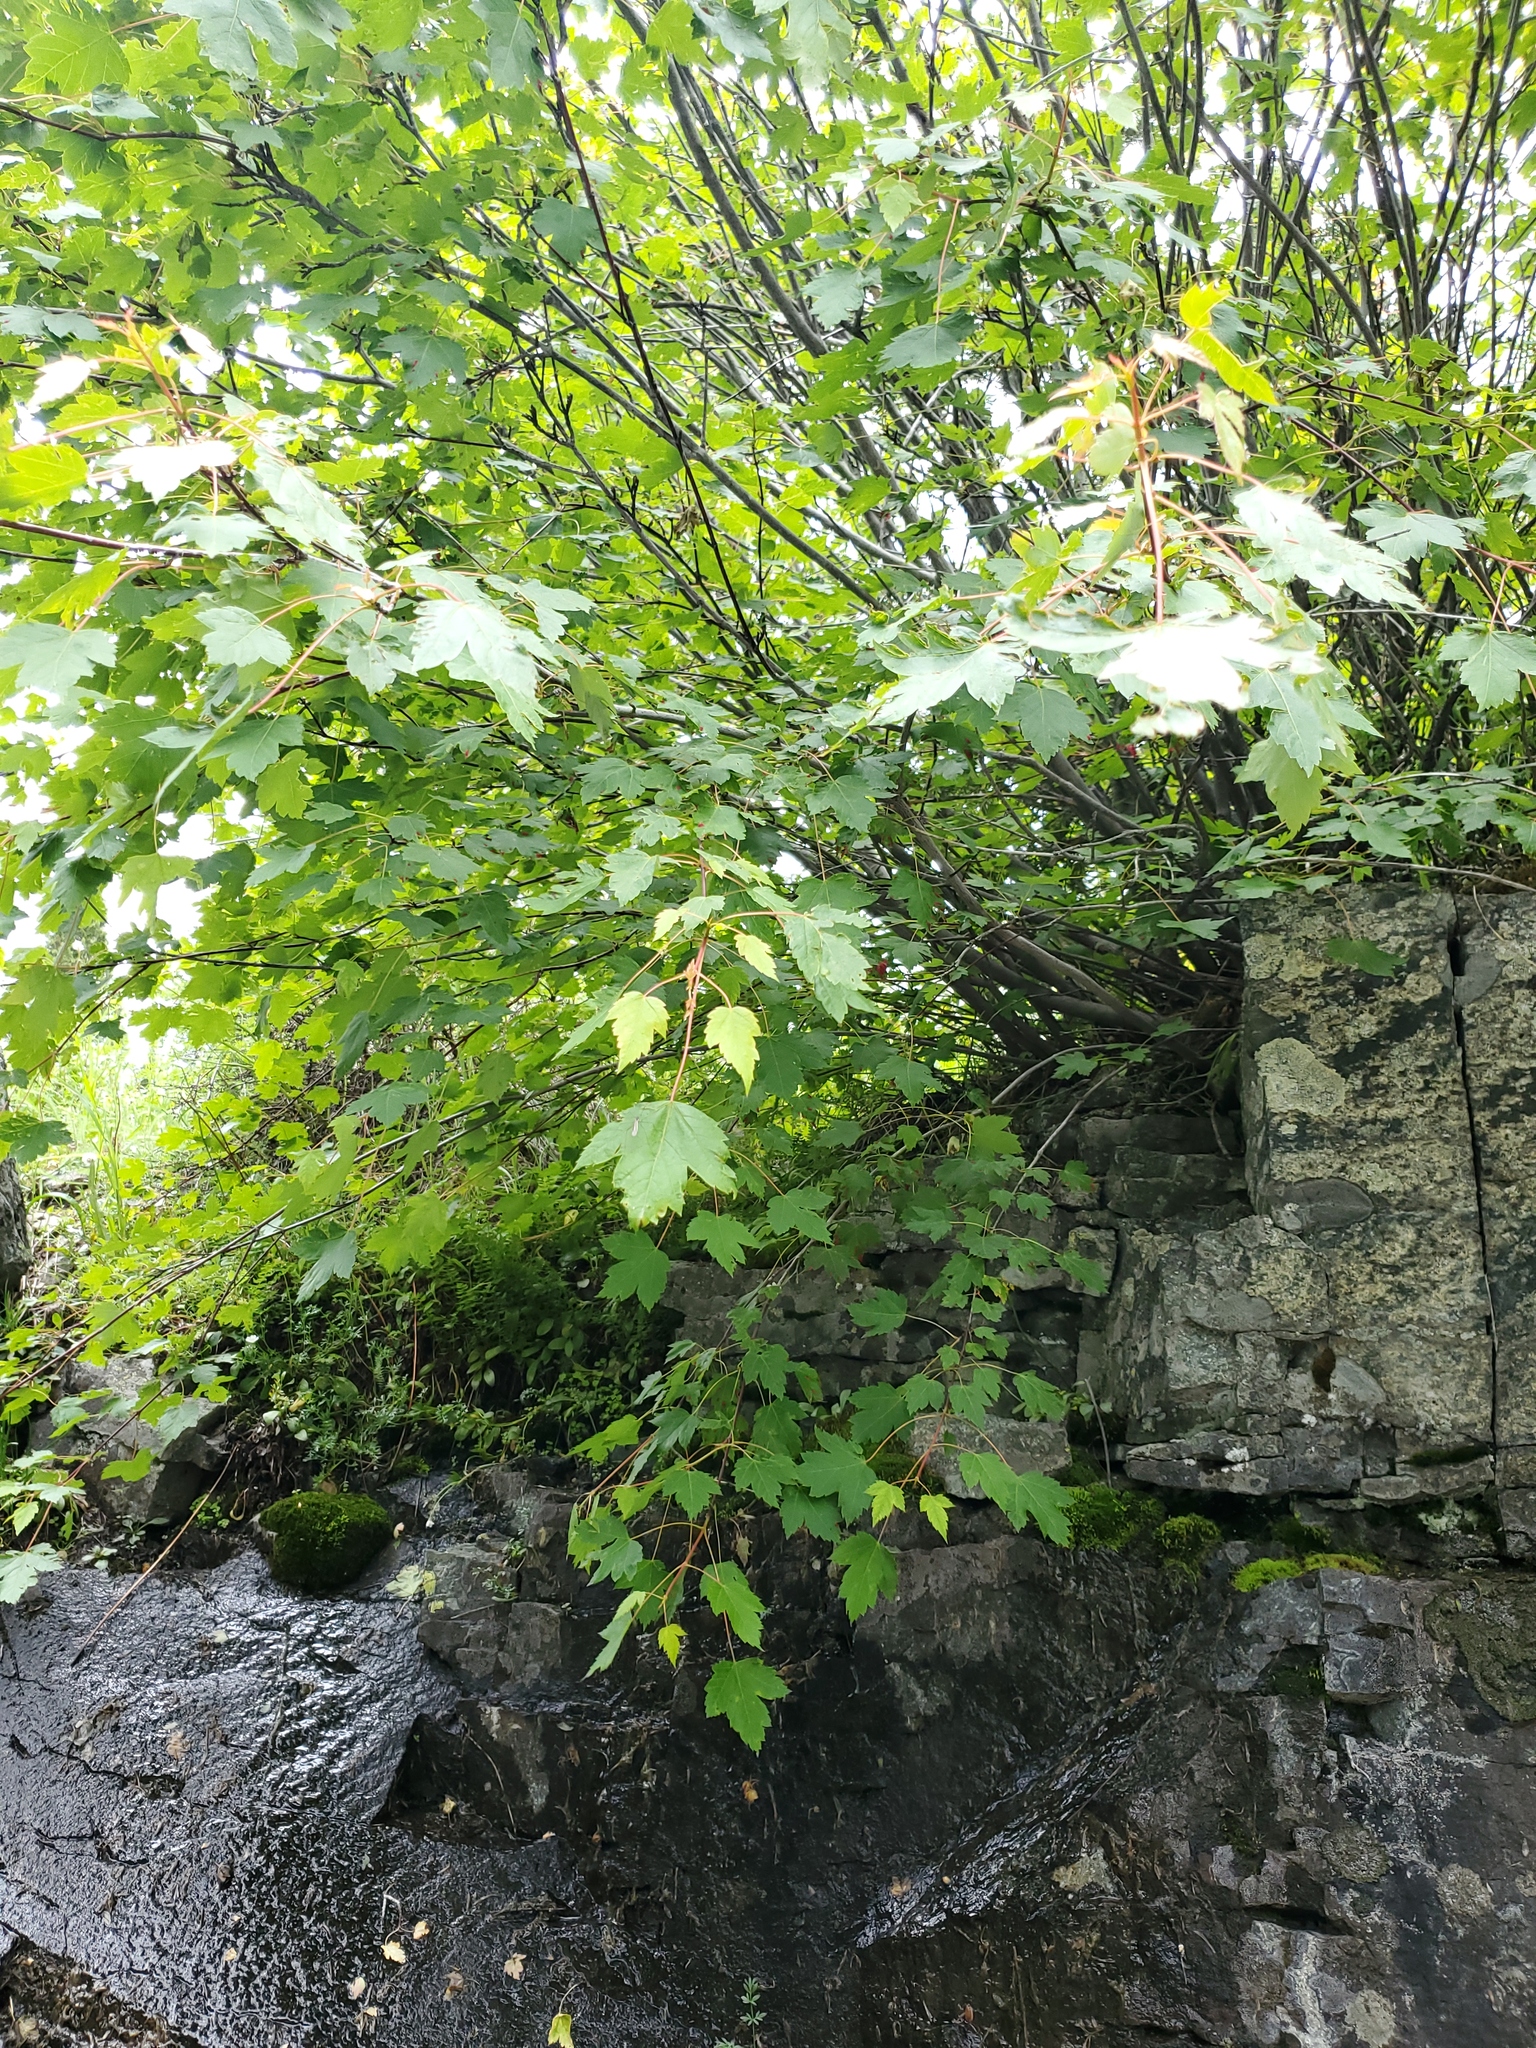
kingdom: Plantae
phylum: Tracheophyta
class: Magnoliopsida
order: Sapindales
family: Sapindaceae
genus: Acer
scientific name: Acer glabrum
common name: Rocky mountain maple
